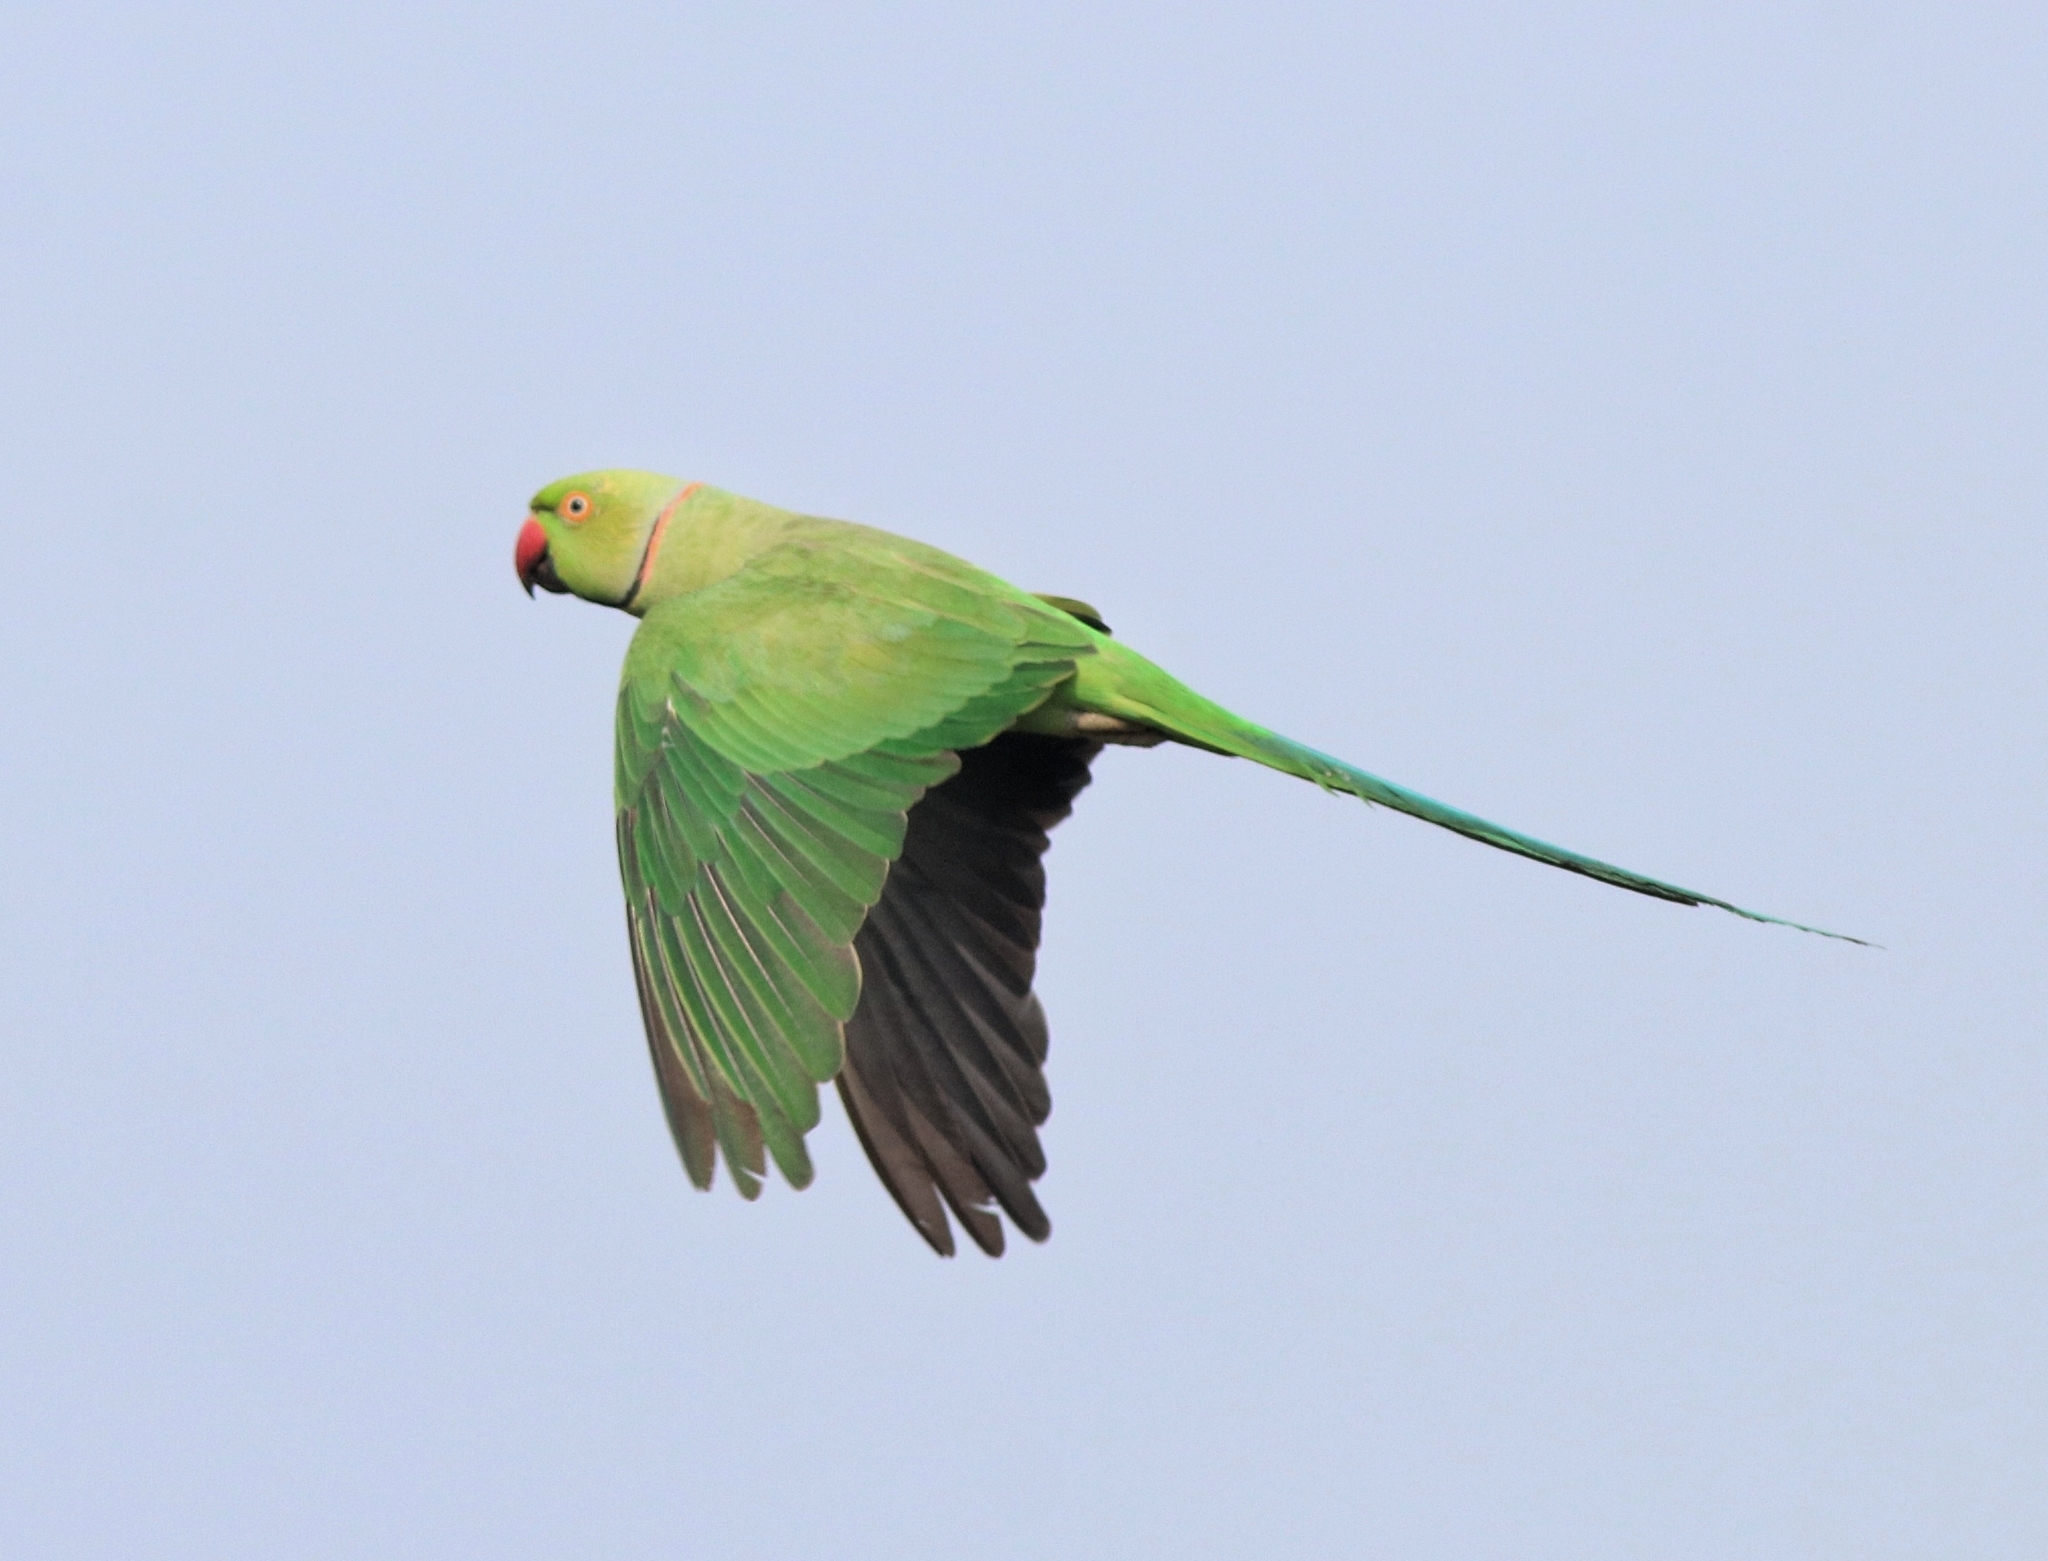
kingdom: Animalia
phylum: Chordata
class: Aves
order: Psittaciformes
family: Psittacidae
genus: Psittacula
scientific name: Psittacula krameri
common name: Rose-ringed parakeet
